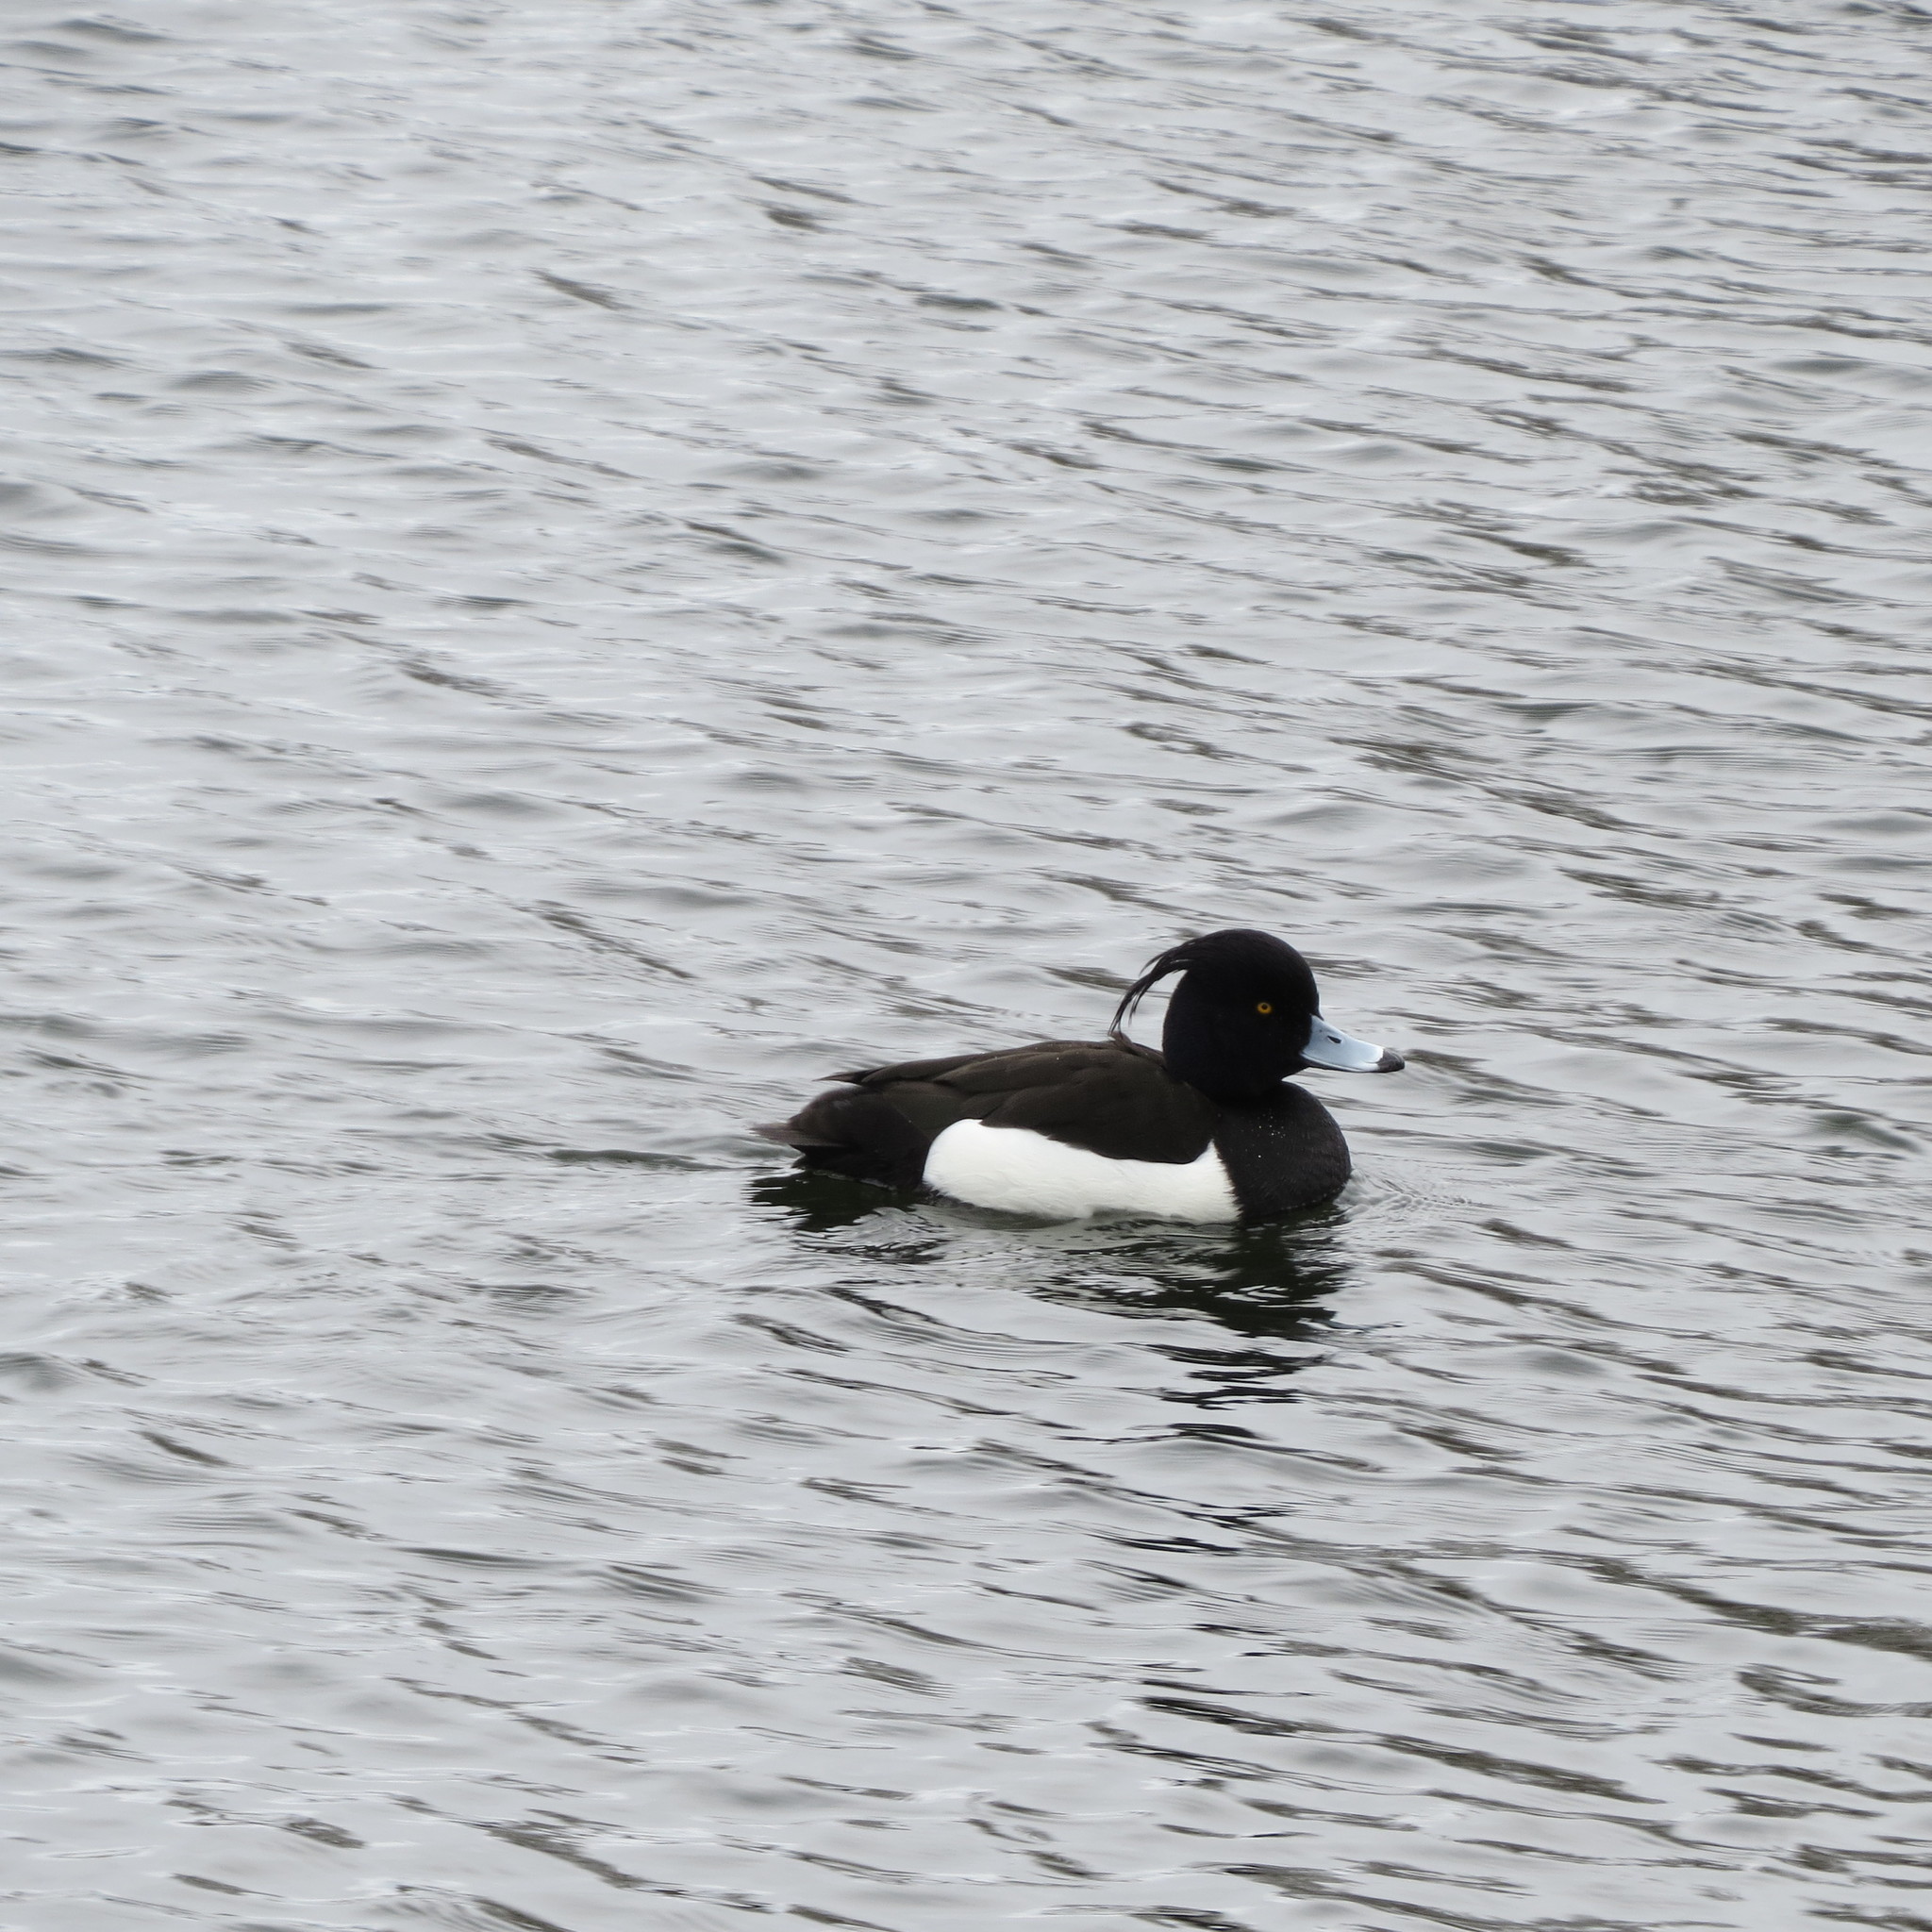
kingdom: Animalia
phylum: Chordata
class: Aves
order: Anseriformes
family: Anatidae
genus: Aythya
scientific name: Aythya fuligula
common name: Tufted duck
